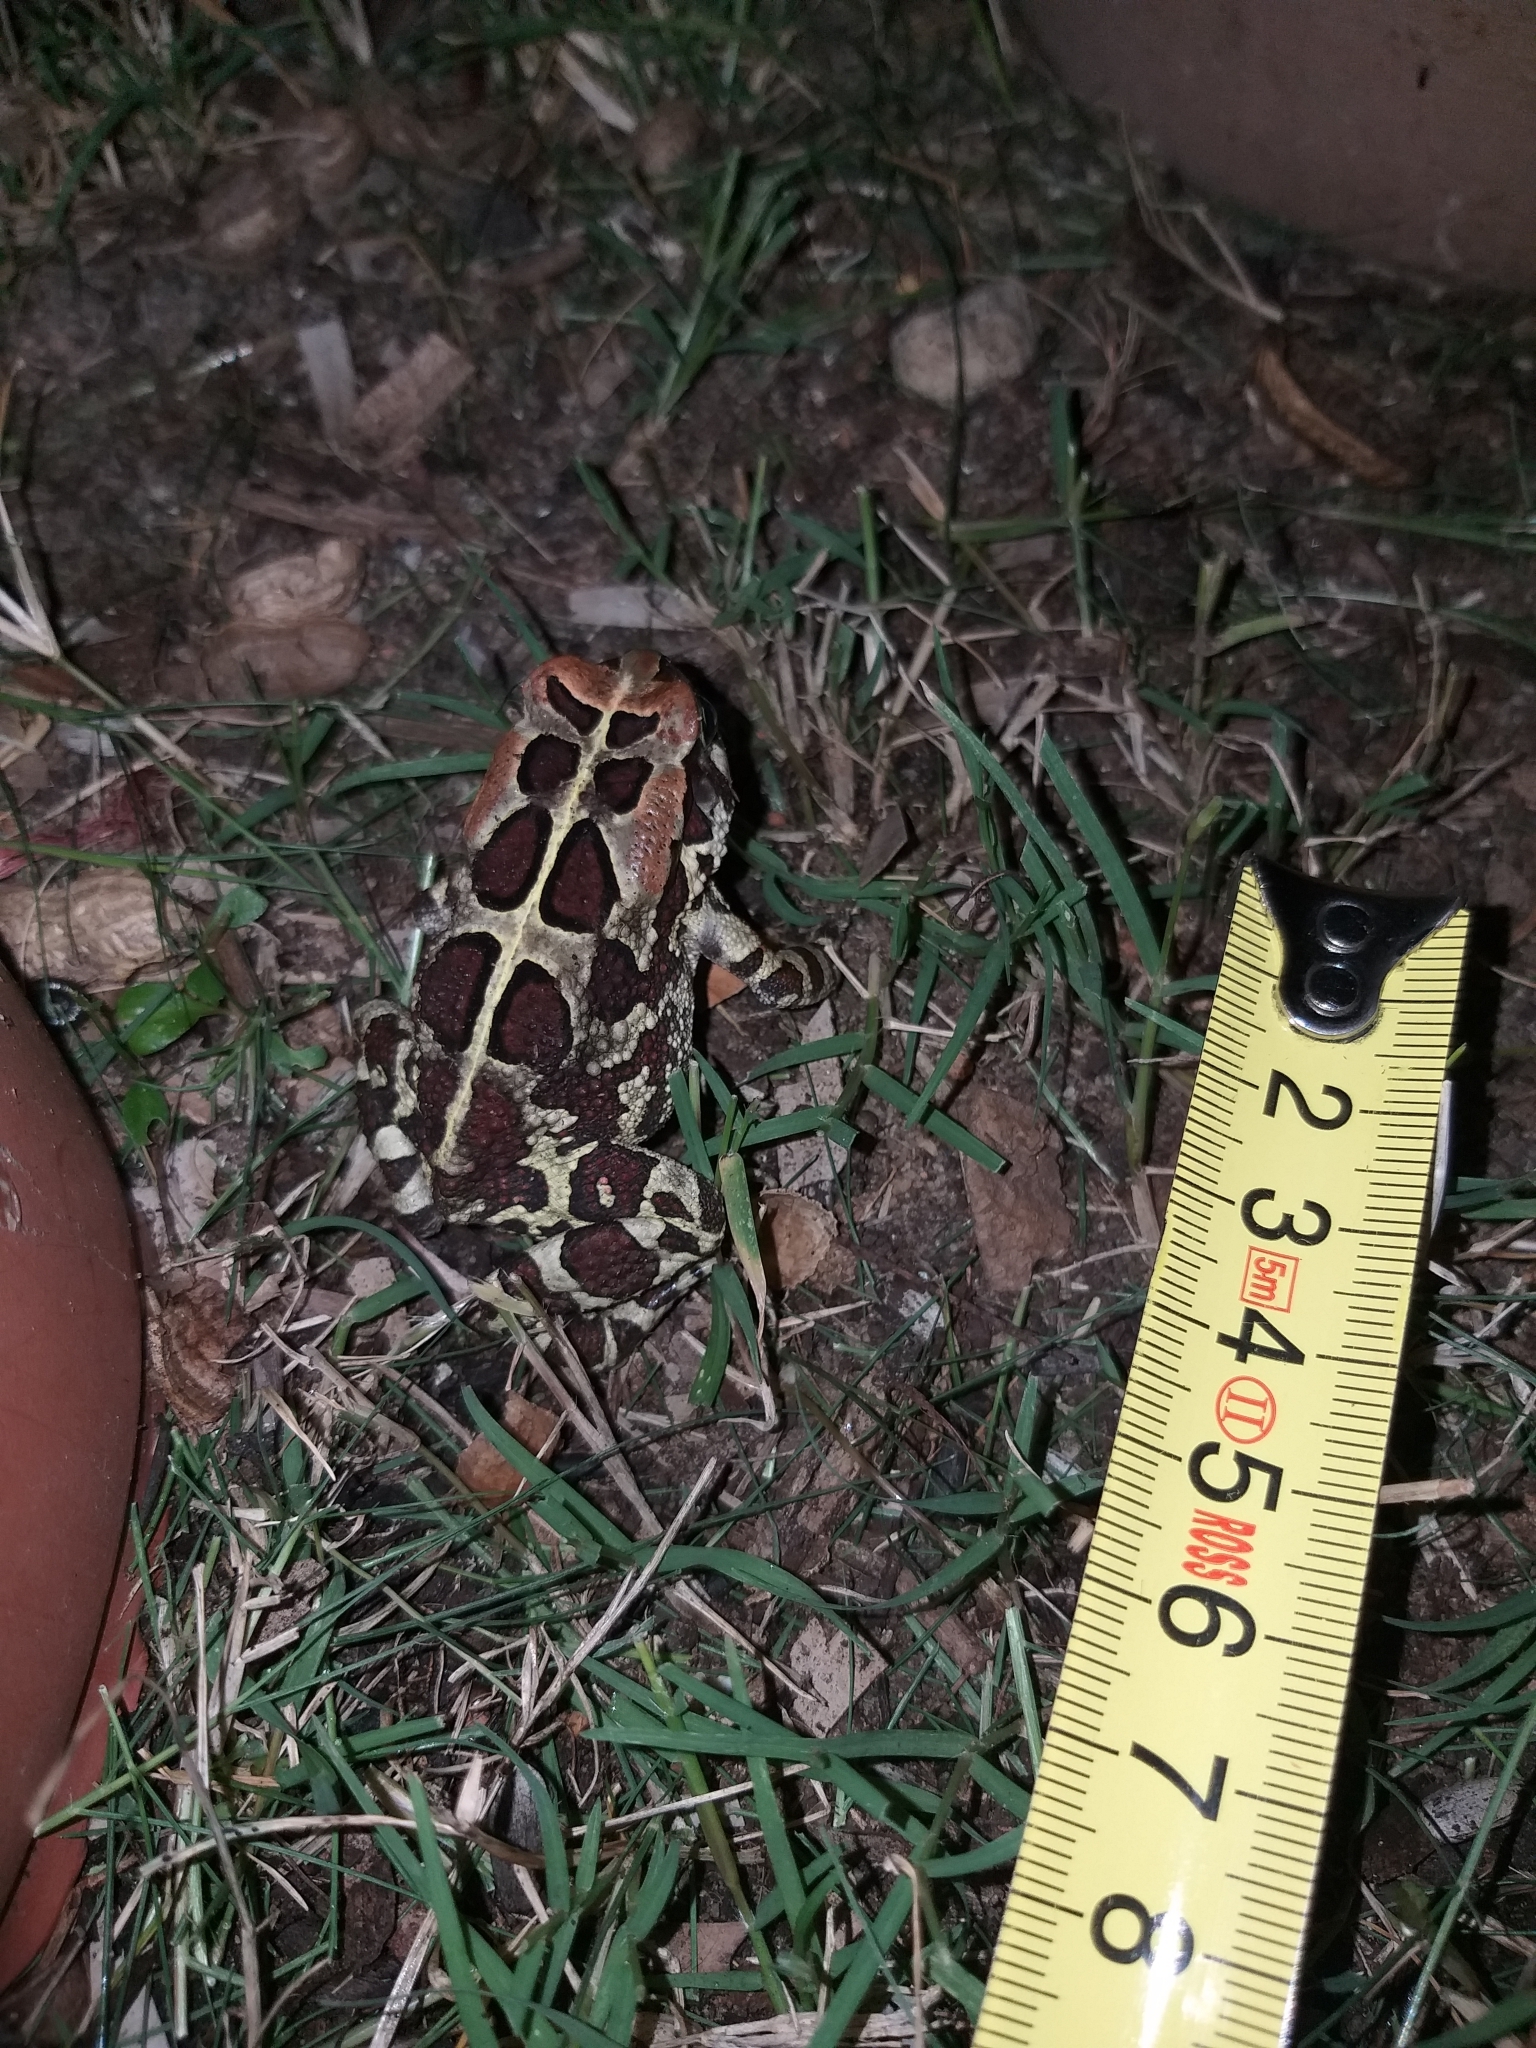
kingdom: Animalia
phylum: Chordata
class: Amphibia
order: Anura
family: Bufonidae
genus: Sclerophrys
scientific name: Sclerophrys pantherina
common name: Panther toad
